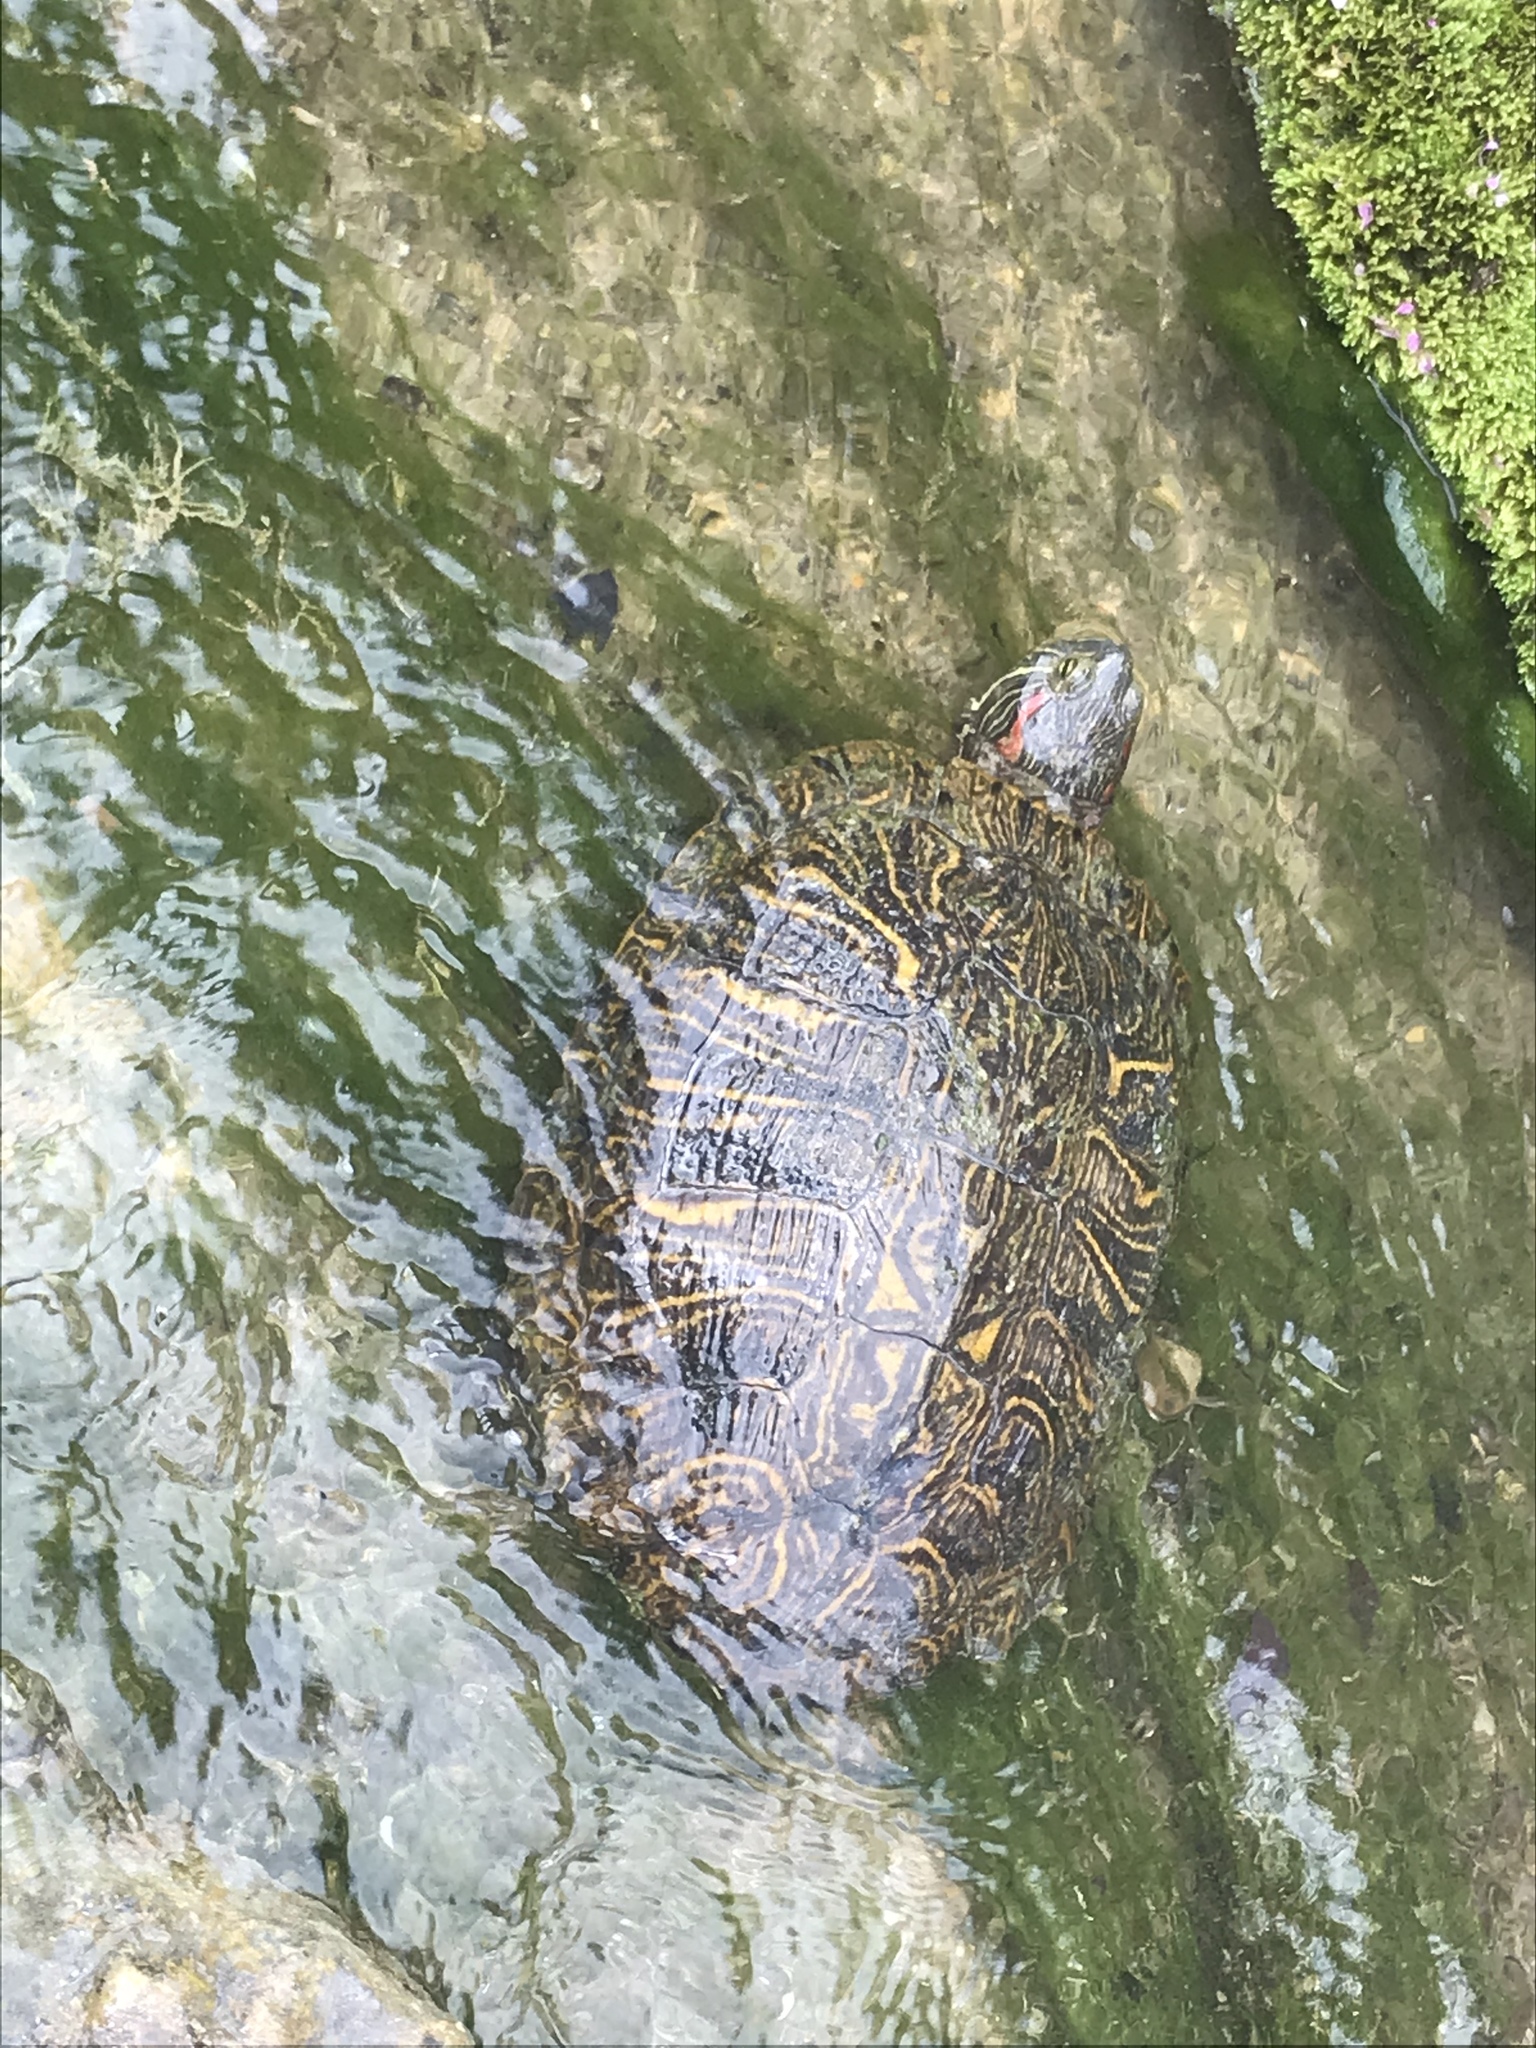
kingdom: Animalia
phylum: Chordata
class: Testudines
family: Emydidae
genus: Trachemys
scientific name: Trachemys scripta
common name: Slider
